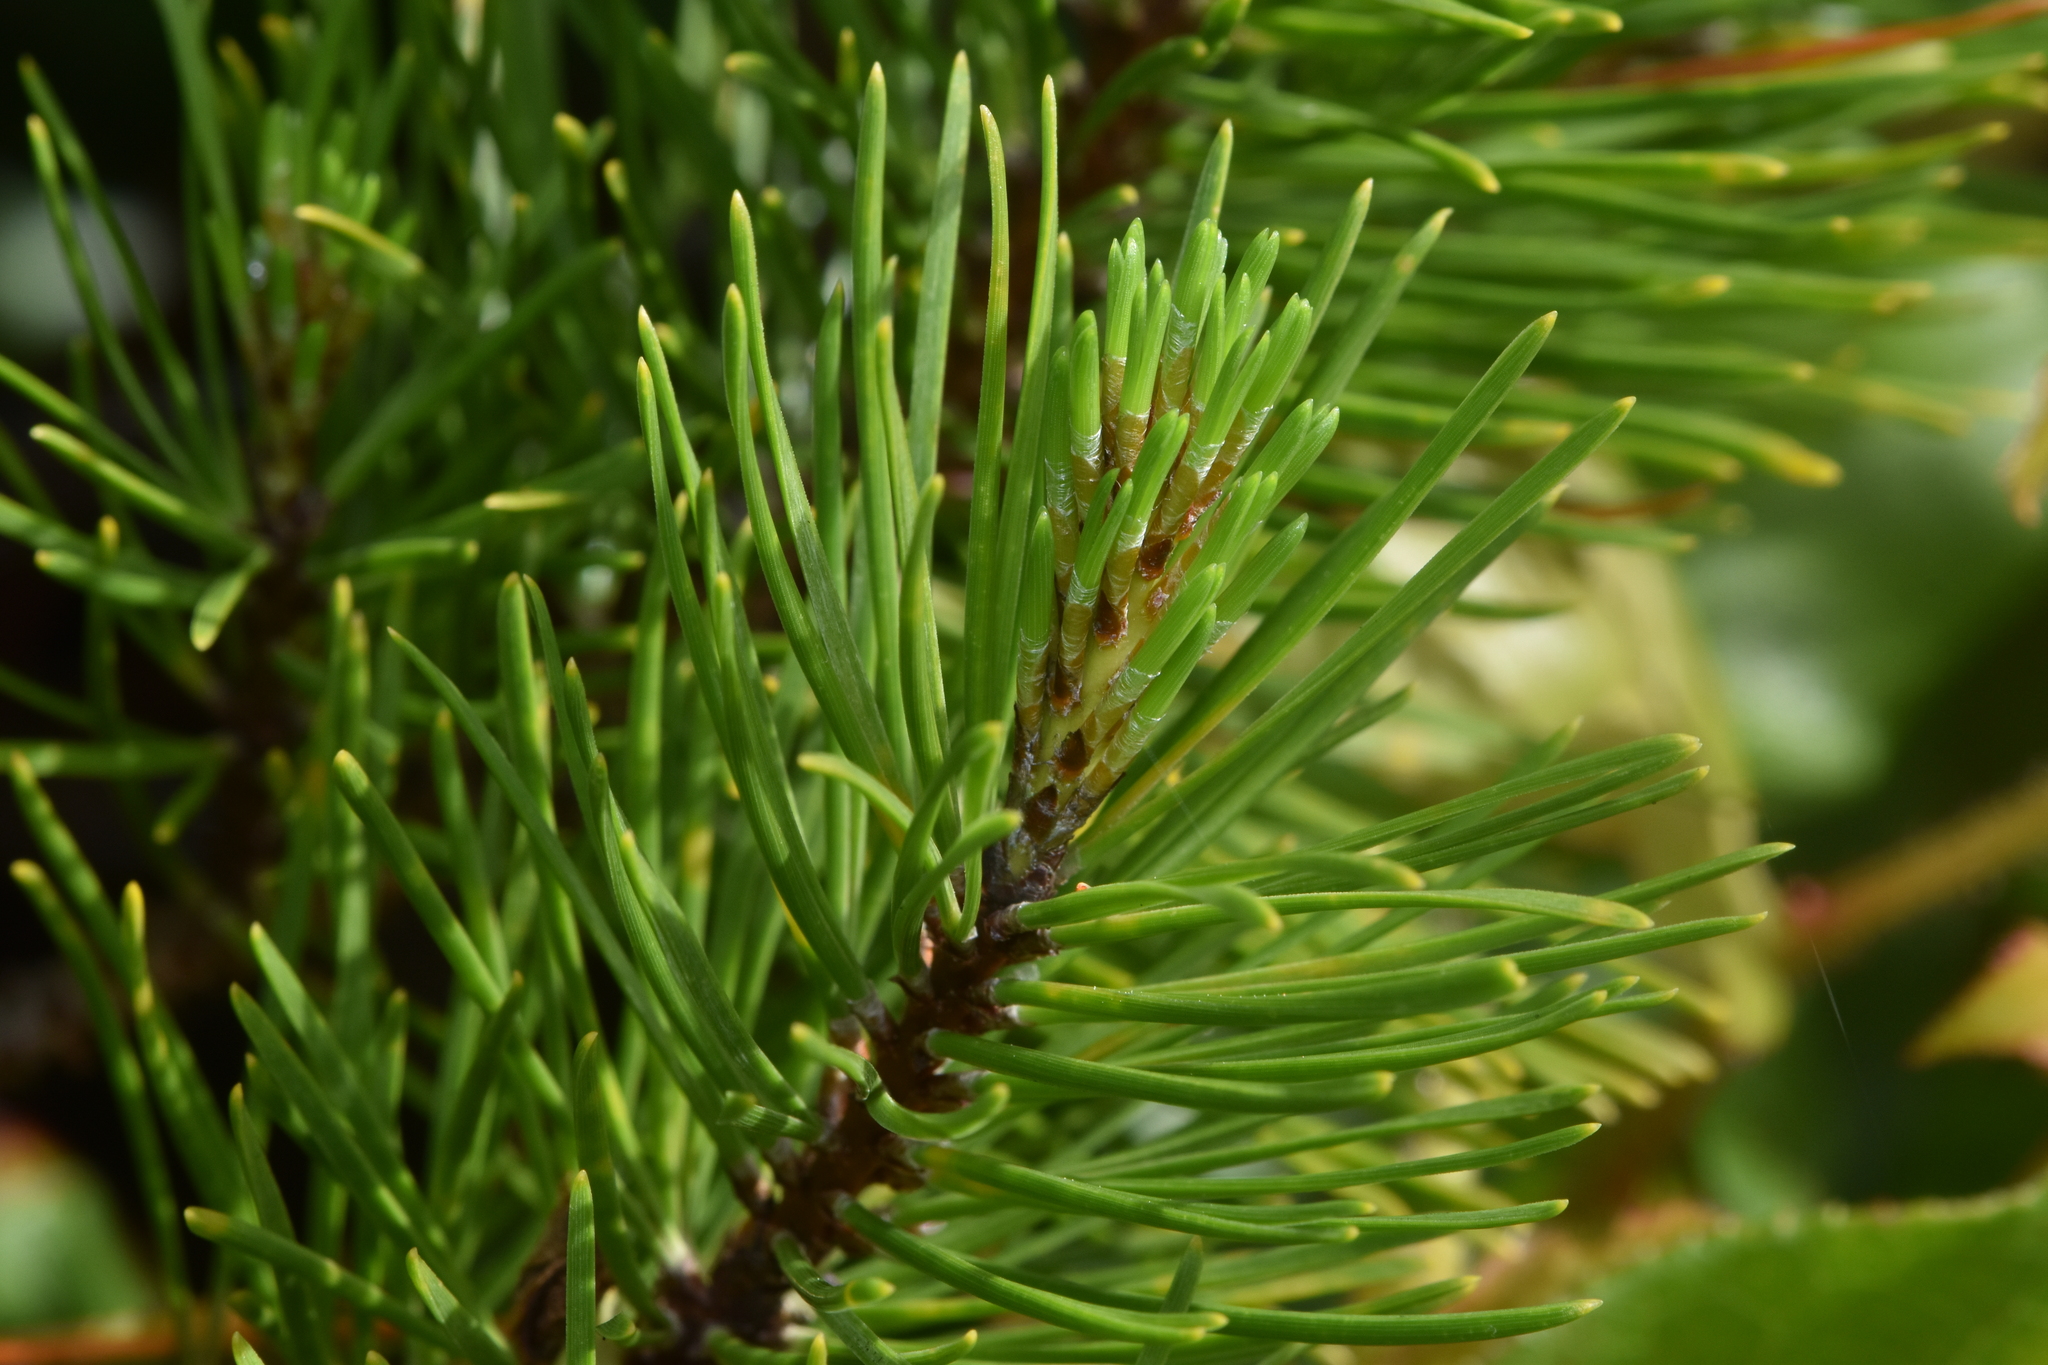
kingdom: Plantae
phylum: Tracheophyta
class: Pinopsida
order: Pinales
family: Pinaceae
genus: Pinus
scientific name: Pinus contorta
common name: Lodgepole pine
